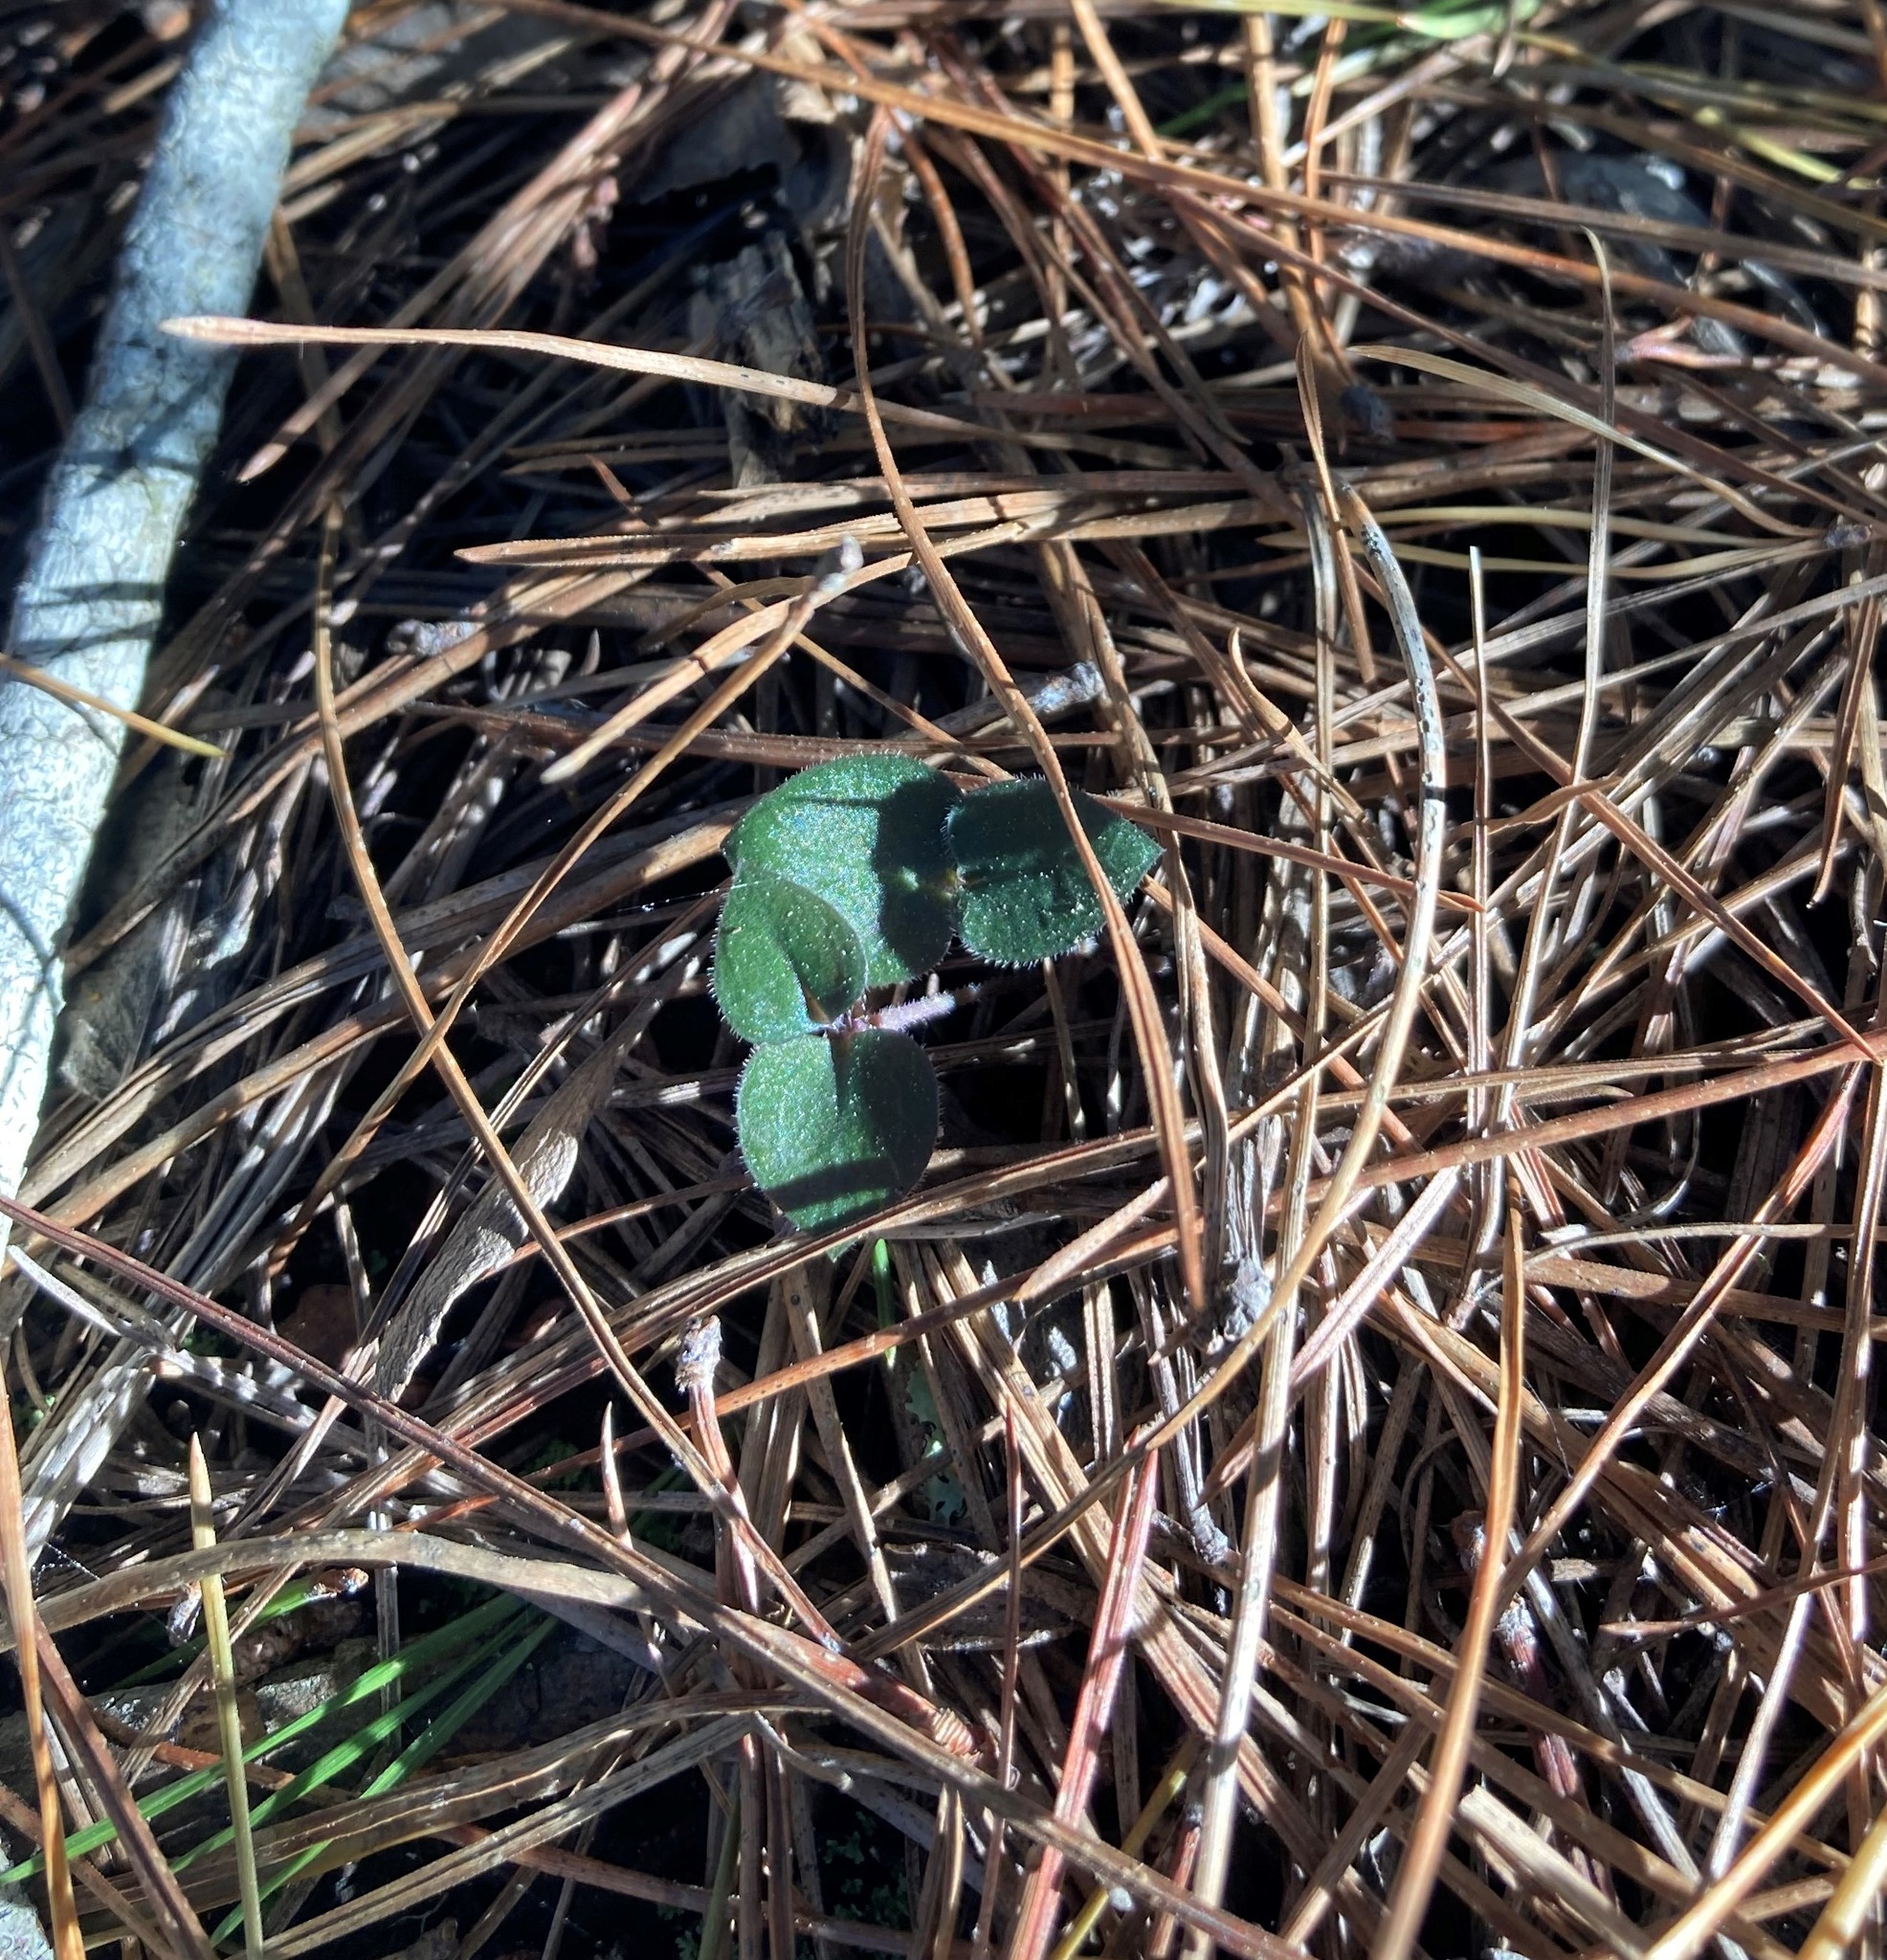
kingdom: Plantae
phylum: Tracheophyta
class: Liliopsida
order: Asparagales
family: Orchidaceae
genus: Disperis
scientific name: Disperis macowanii
